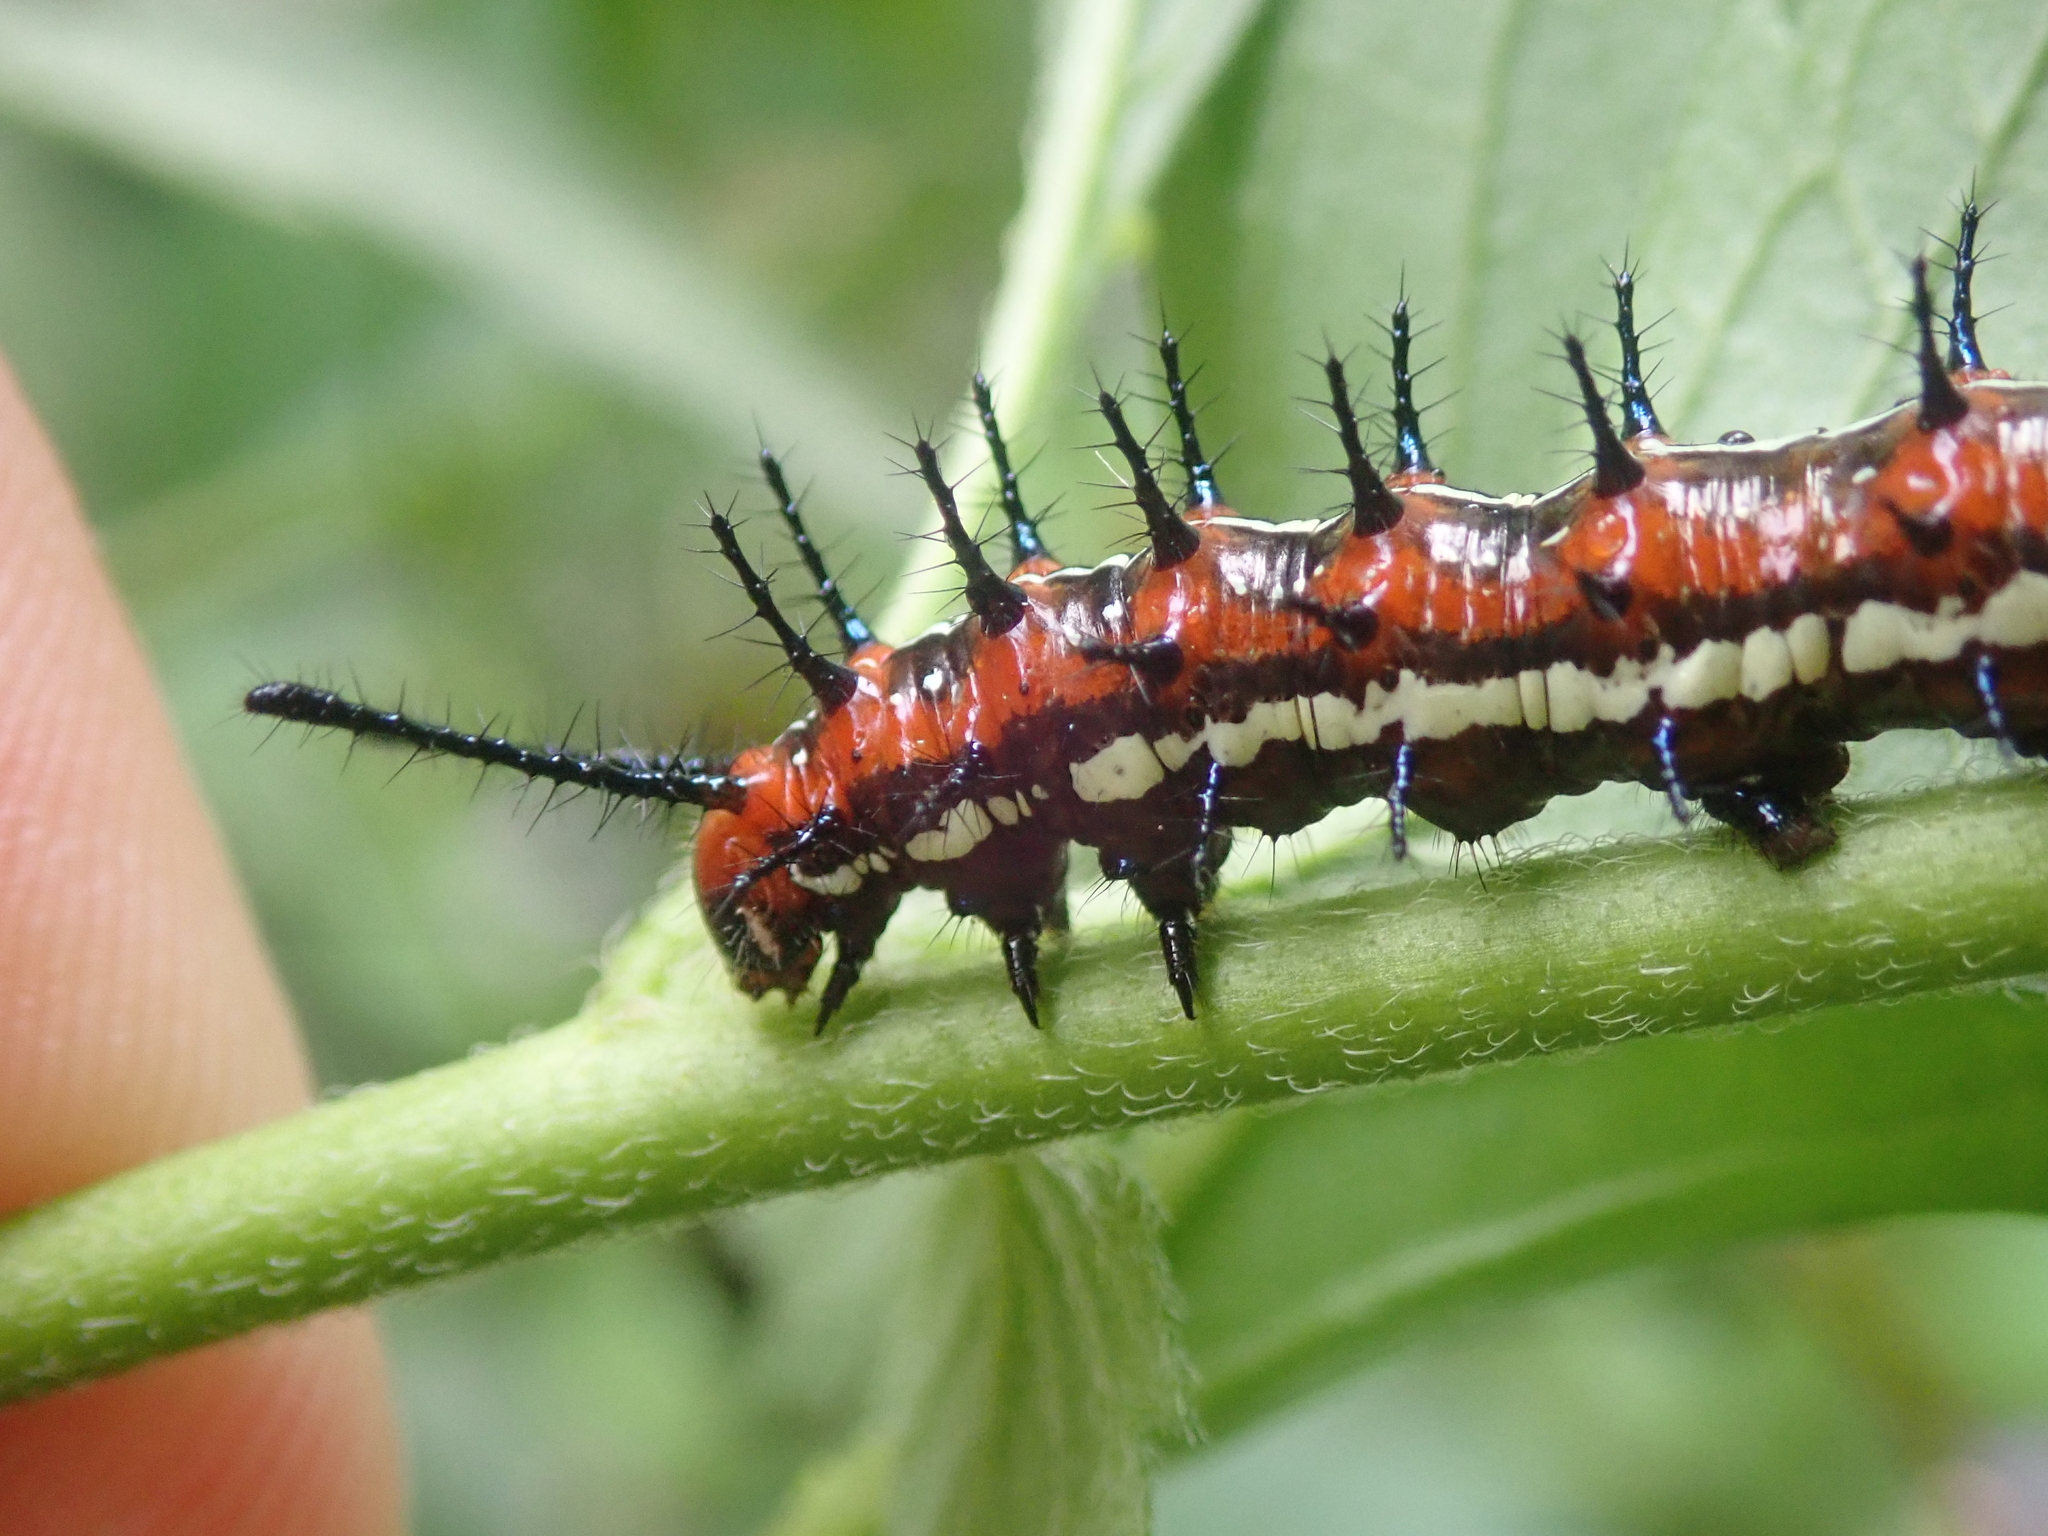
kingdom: Animalia
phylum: Arthropoda
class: Insecta
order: Lepidoptera
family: Nymphalidae
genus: Euptoieta
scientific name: Euptoieta hegesia
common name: Mexican fritillary
